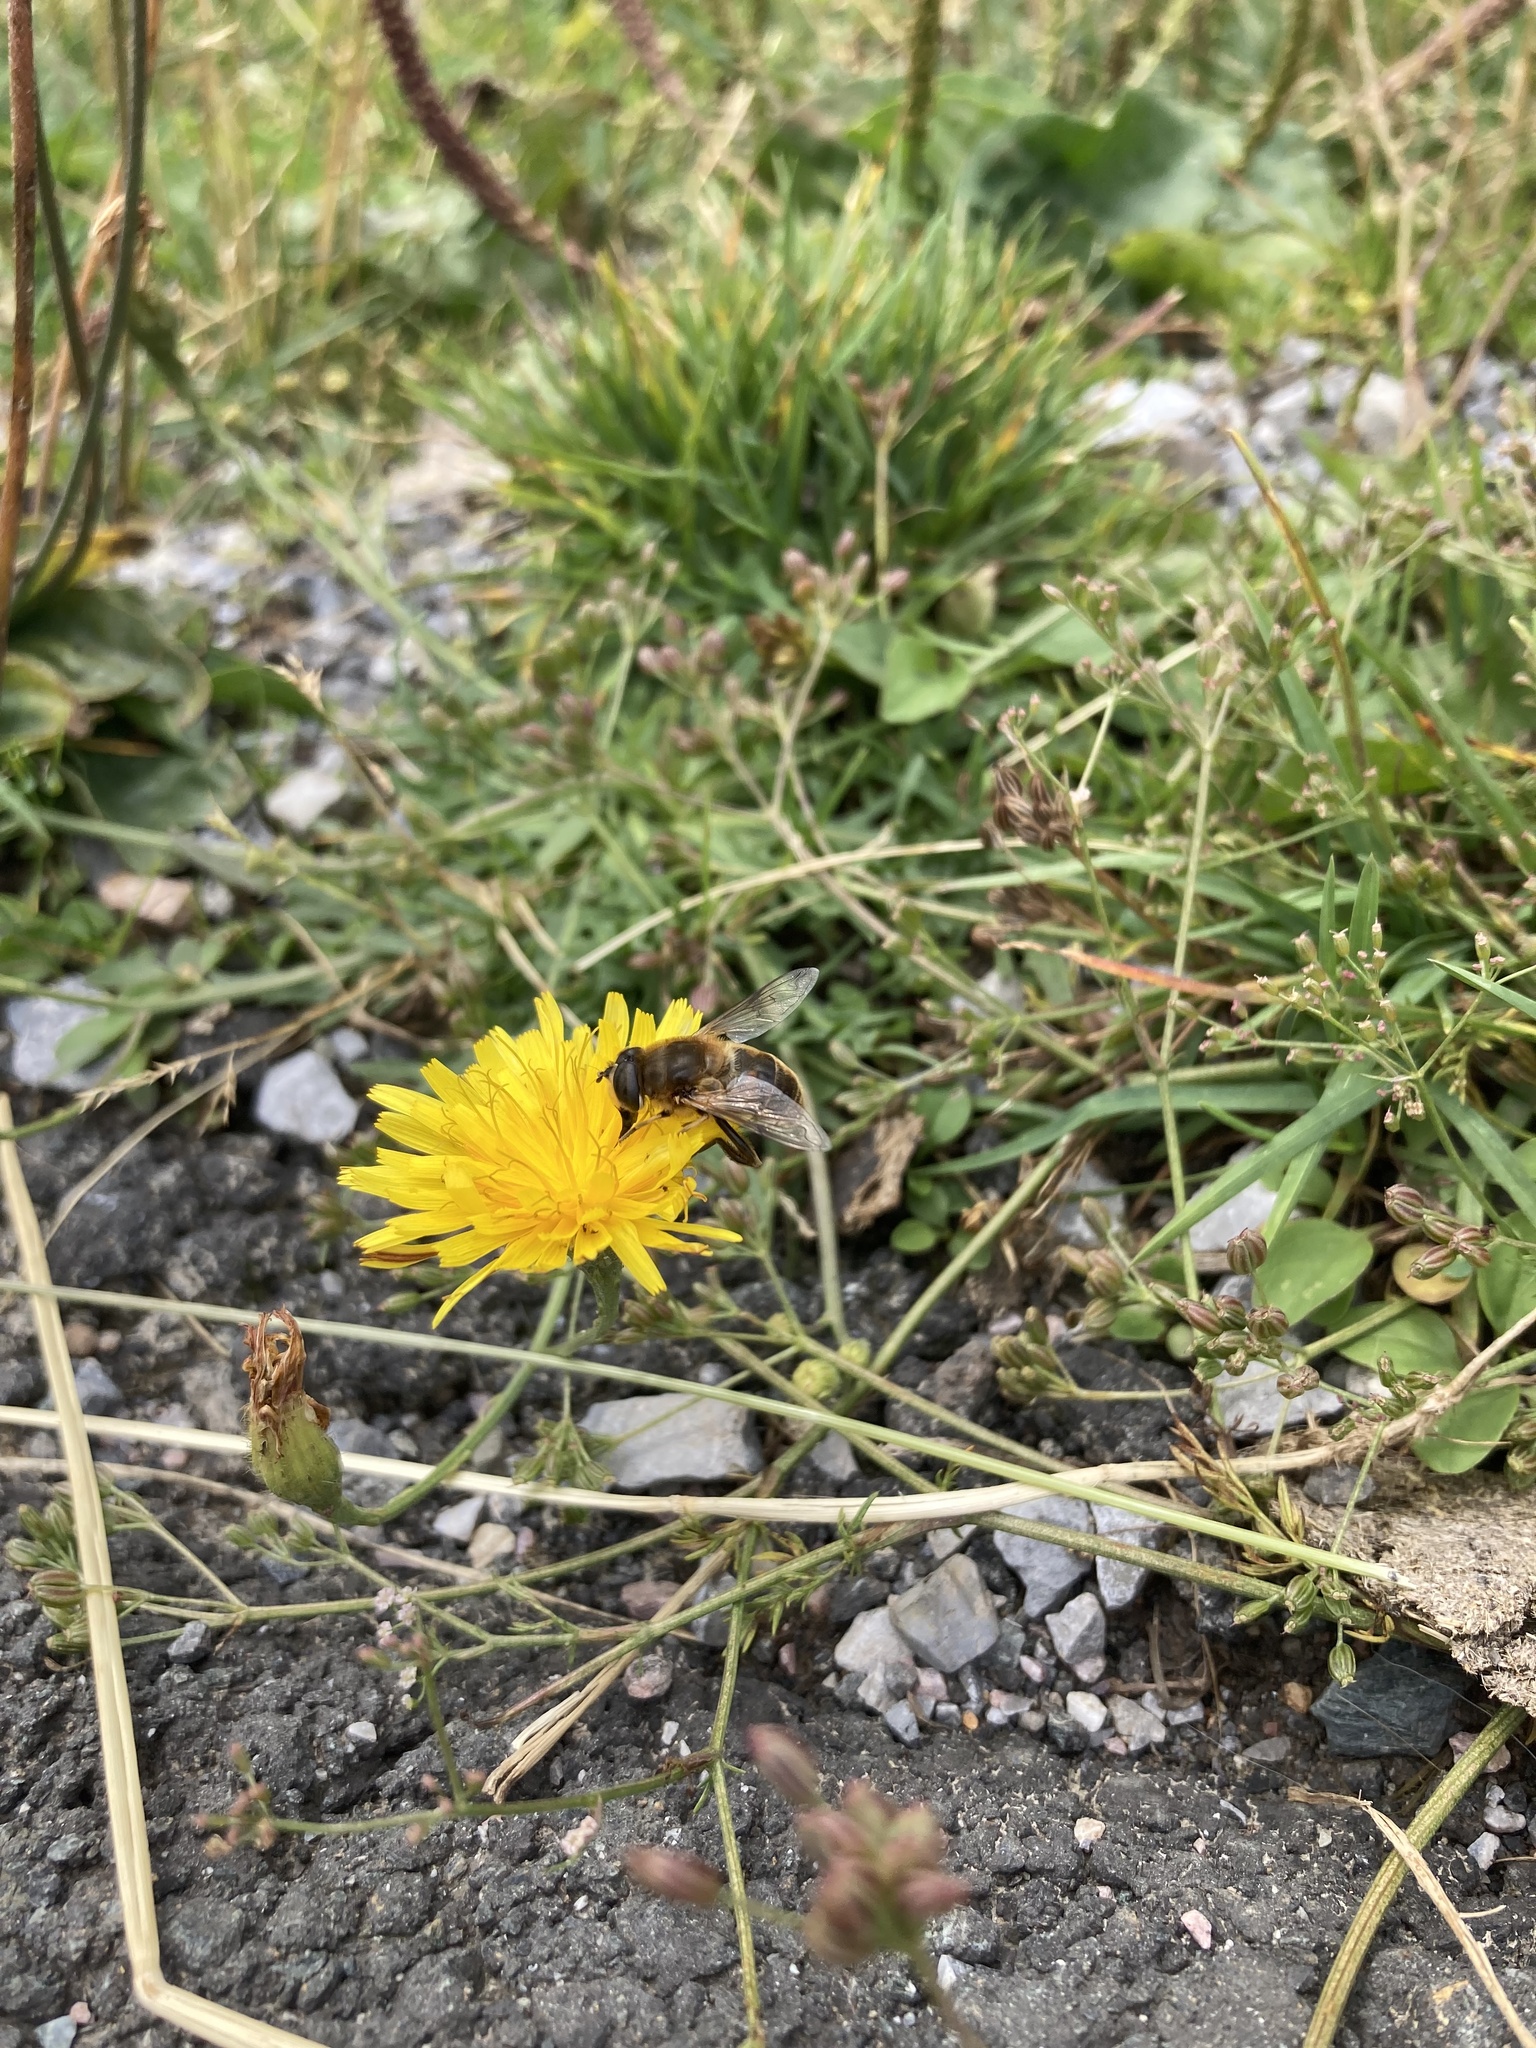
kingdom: Animalia
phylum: Arthropoda
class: Insecta
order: Diptera
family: Syrphidae
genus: Eristalis
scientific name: Eristalis tenax
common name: Drone fly
